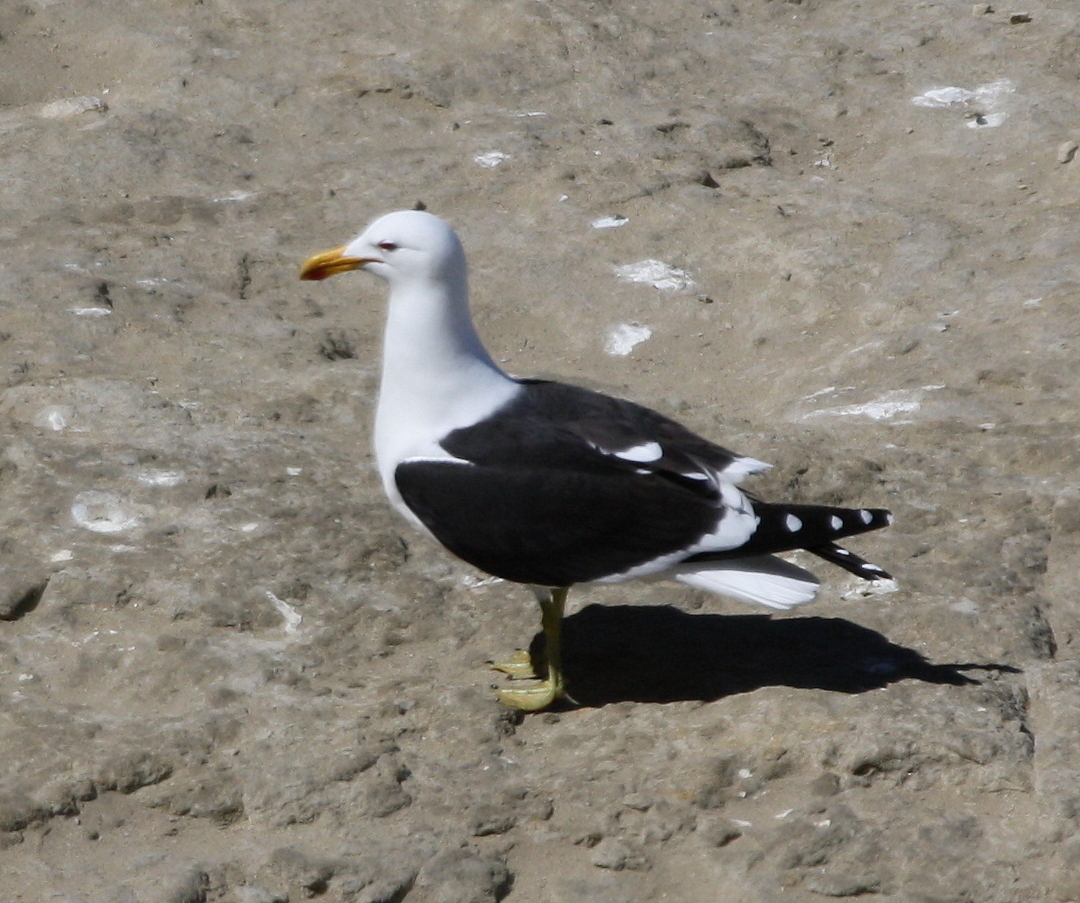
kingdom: Animalia
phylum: Chordata
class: Aves
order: Charadriiformes
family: Laridae
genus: Larus
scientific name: Larus dominicanus
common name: Kelp gull
